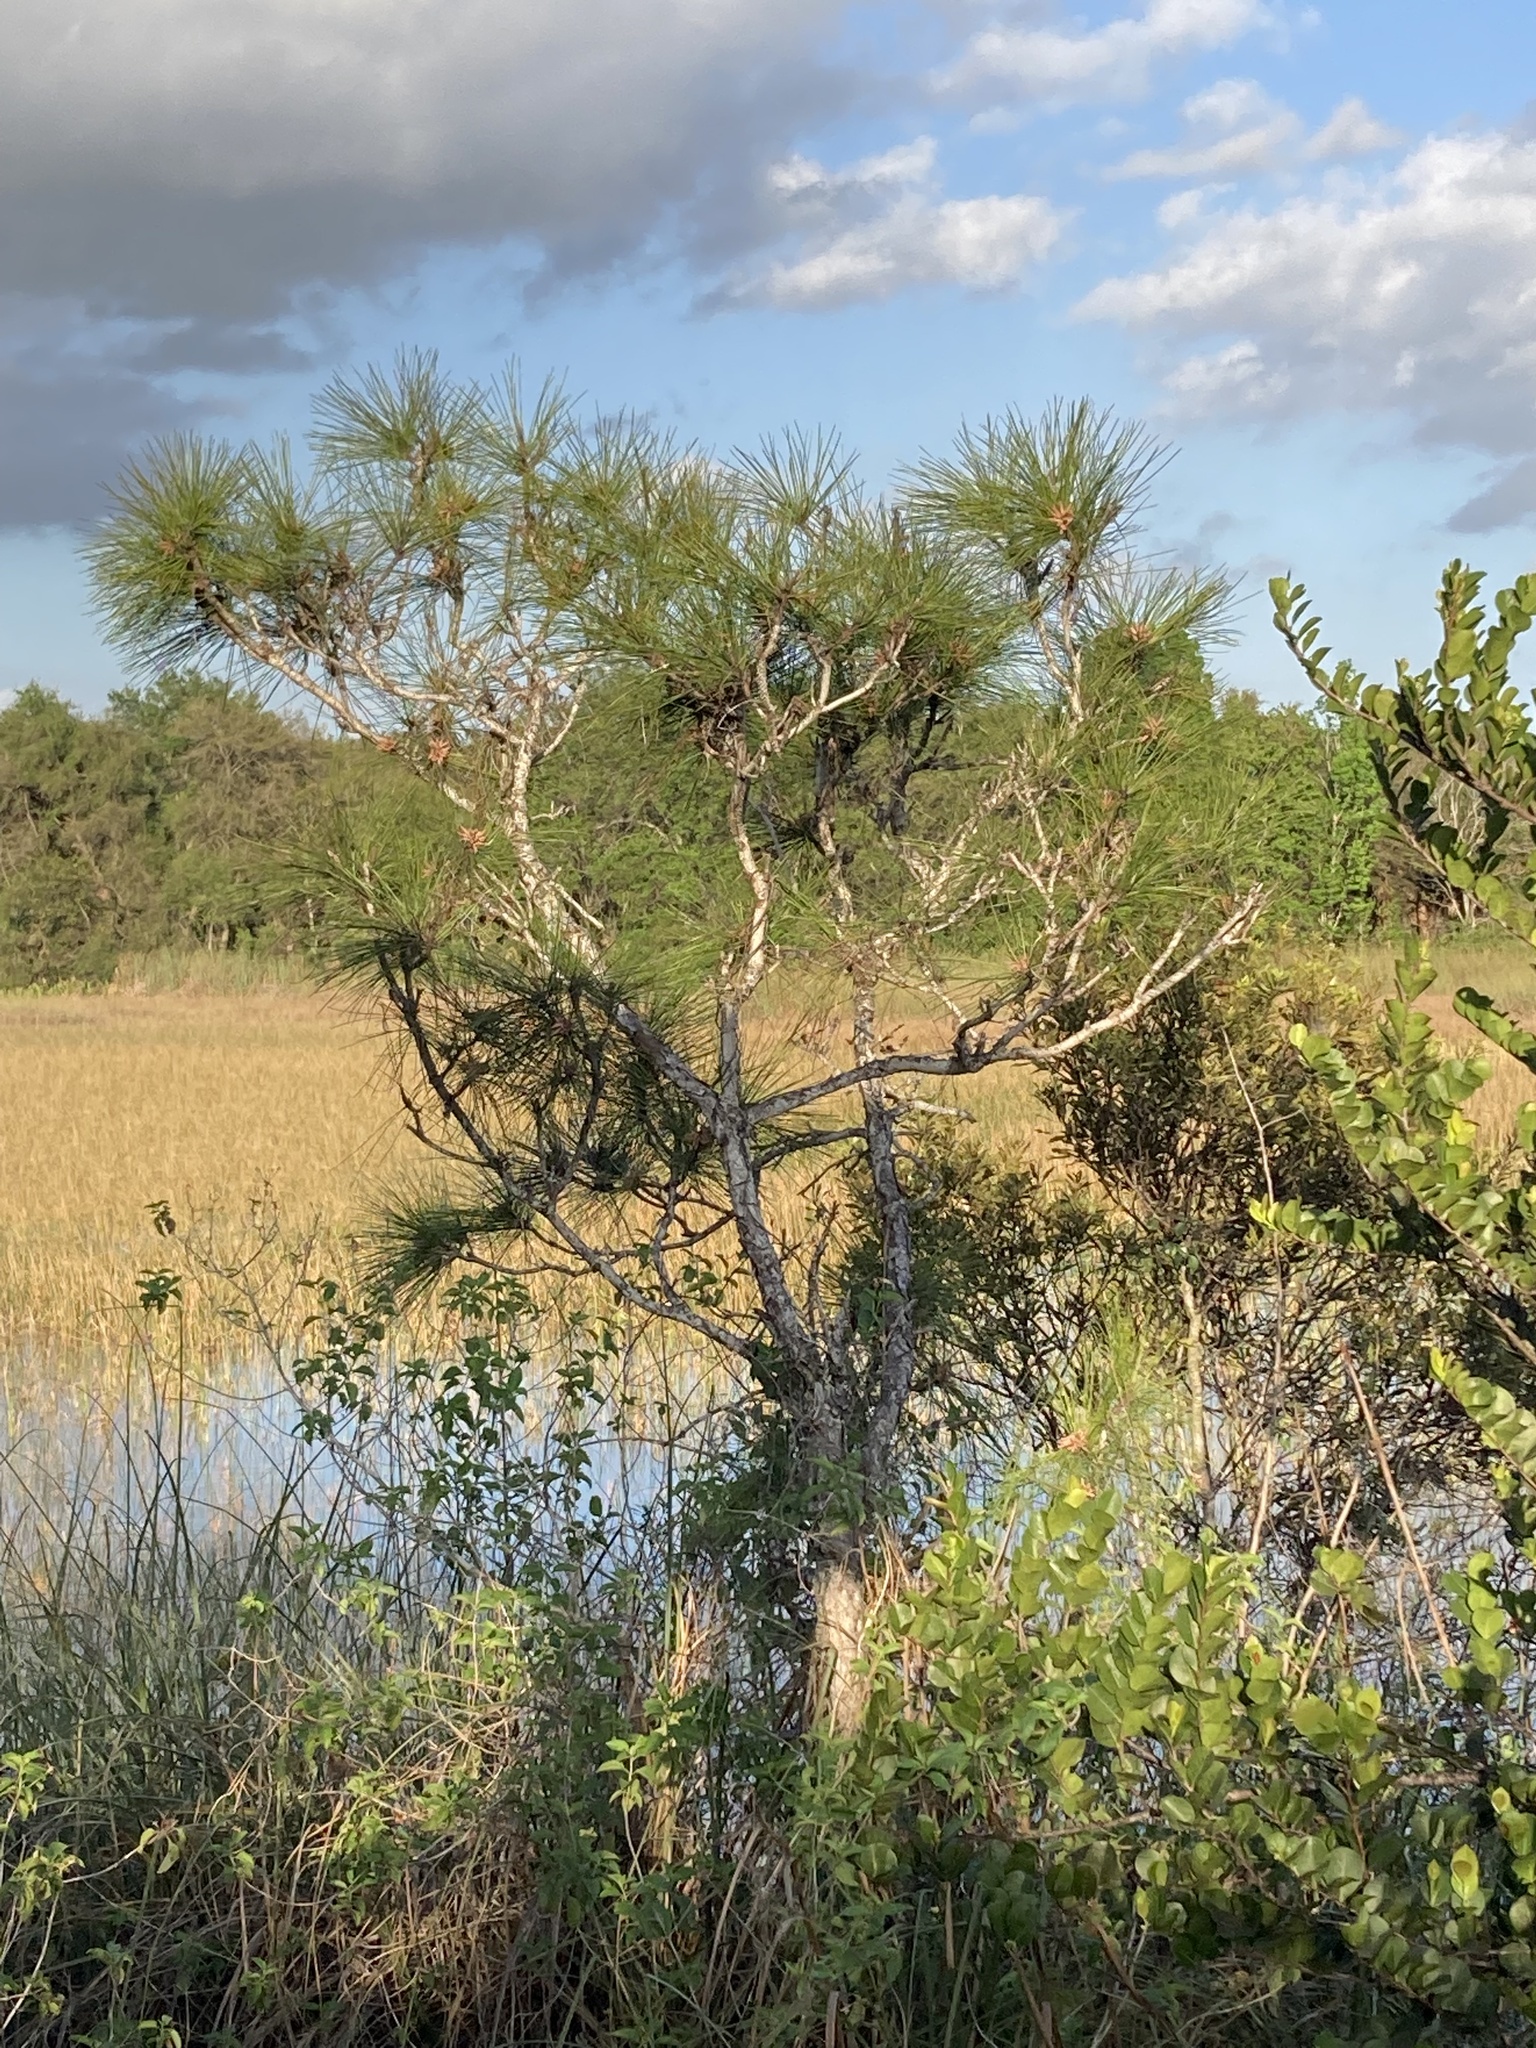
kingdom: Plantae
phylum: Tracheophyta
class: Pinopsida
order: Pinales
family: Pinaceae
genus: Pinus
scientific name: Pinus elliottii
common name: Slash pine
